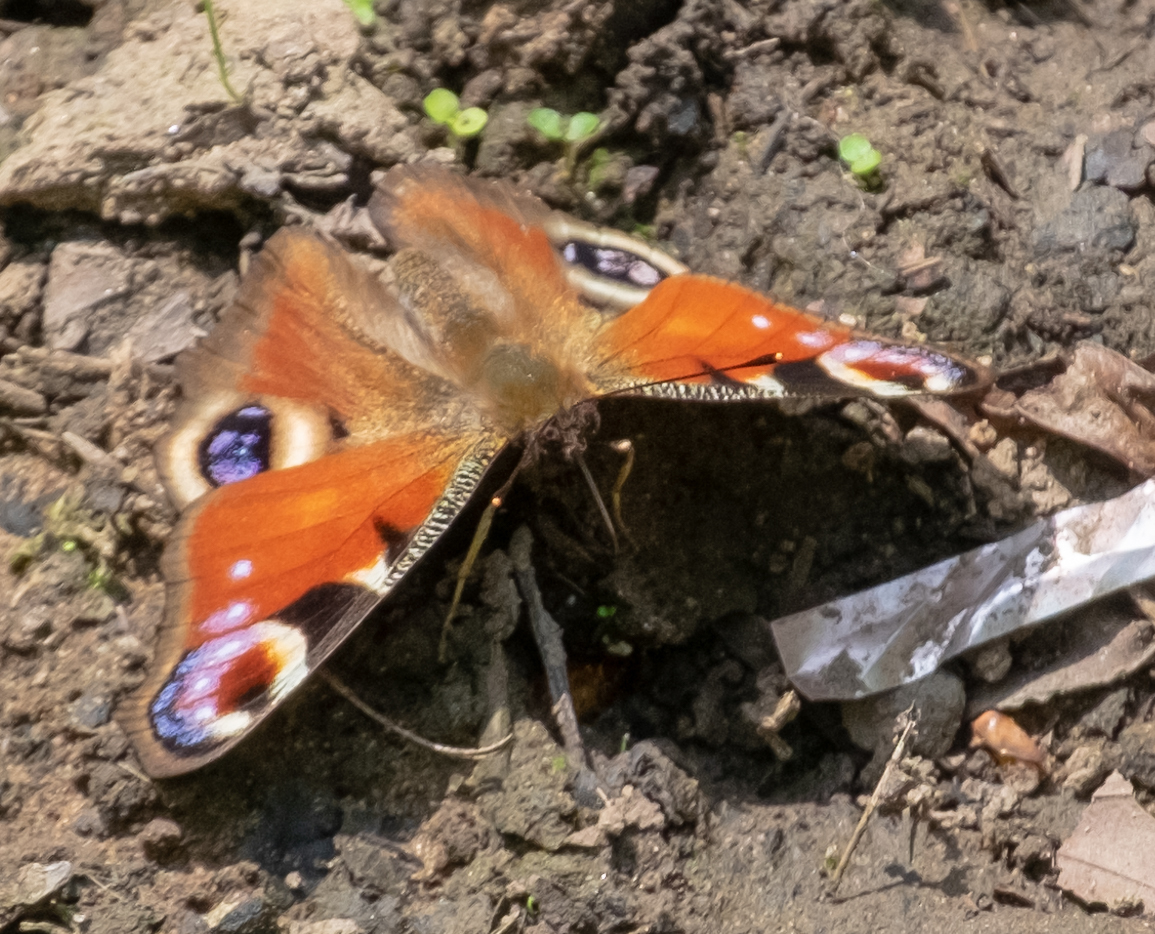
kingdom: Animalia
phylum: Arthropoda
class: Insecta
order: Lepidoptera
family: Nymphalidae
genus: Aglais
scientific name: Aglais io
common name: Peacock
